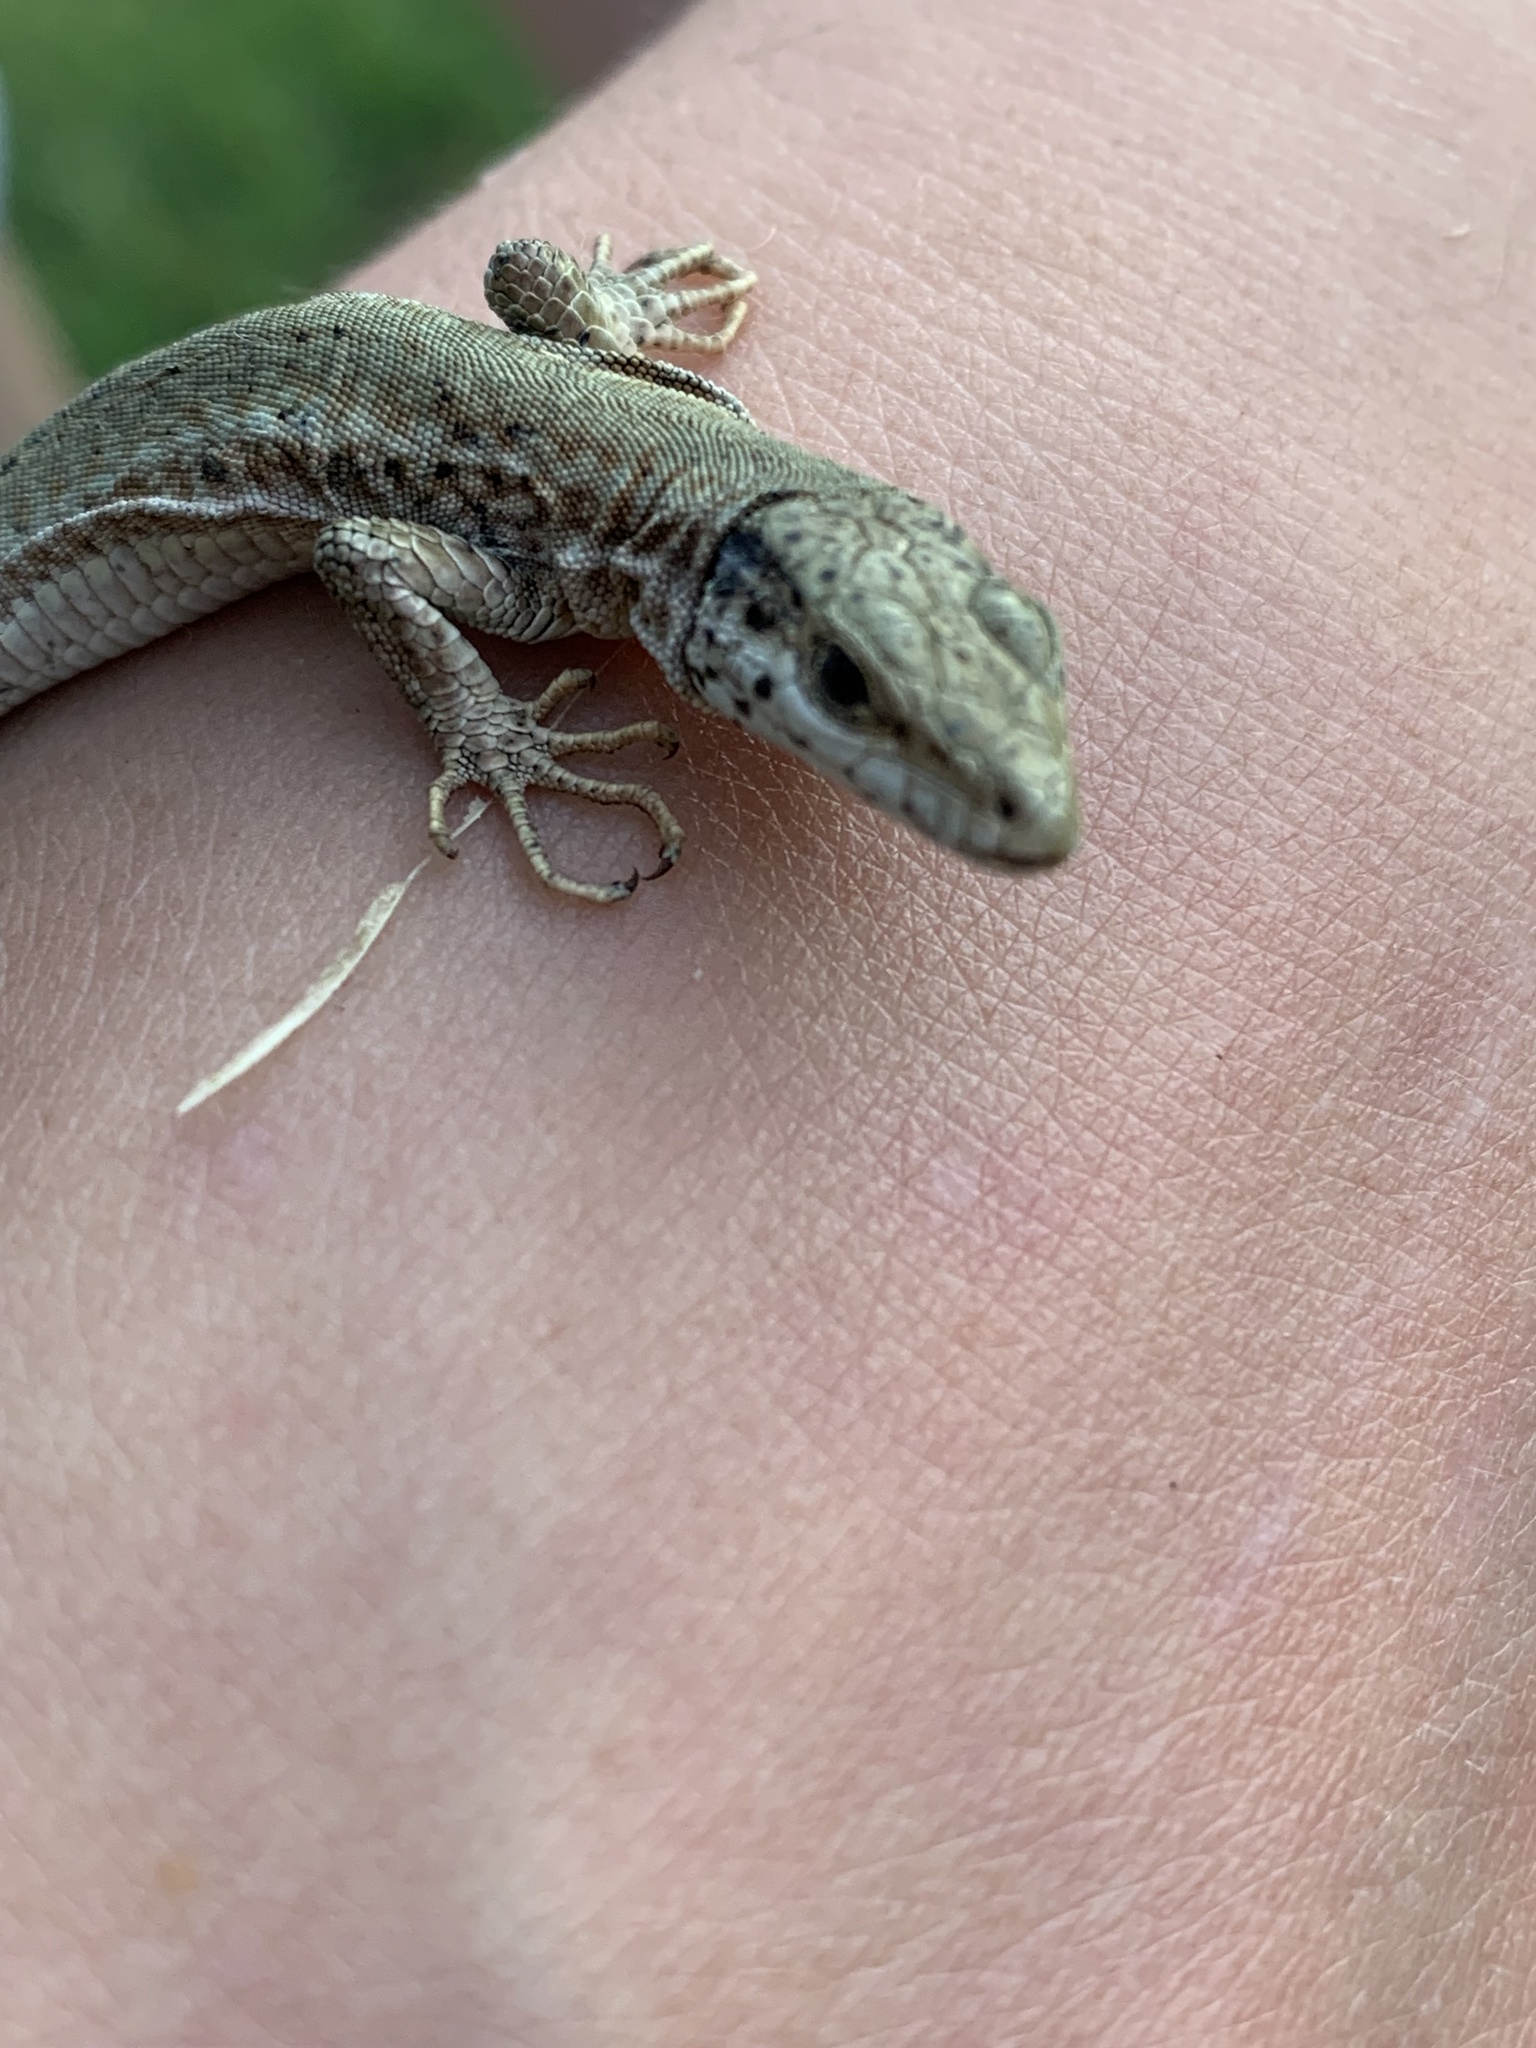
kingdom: Animalia
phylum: Chordata
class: Squamata
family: Lacertidae
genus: Podarcis
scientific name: Podarcis liolepis
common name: Catalonian wall lizard
